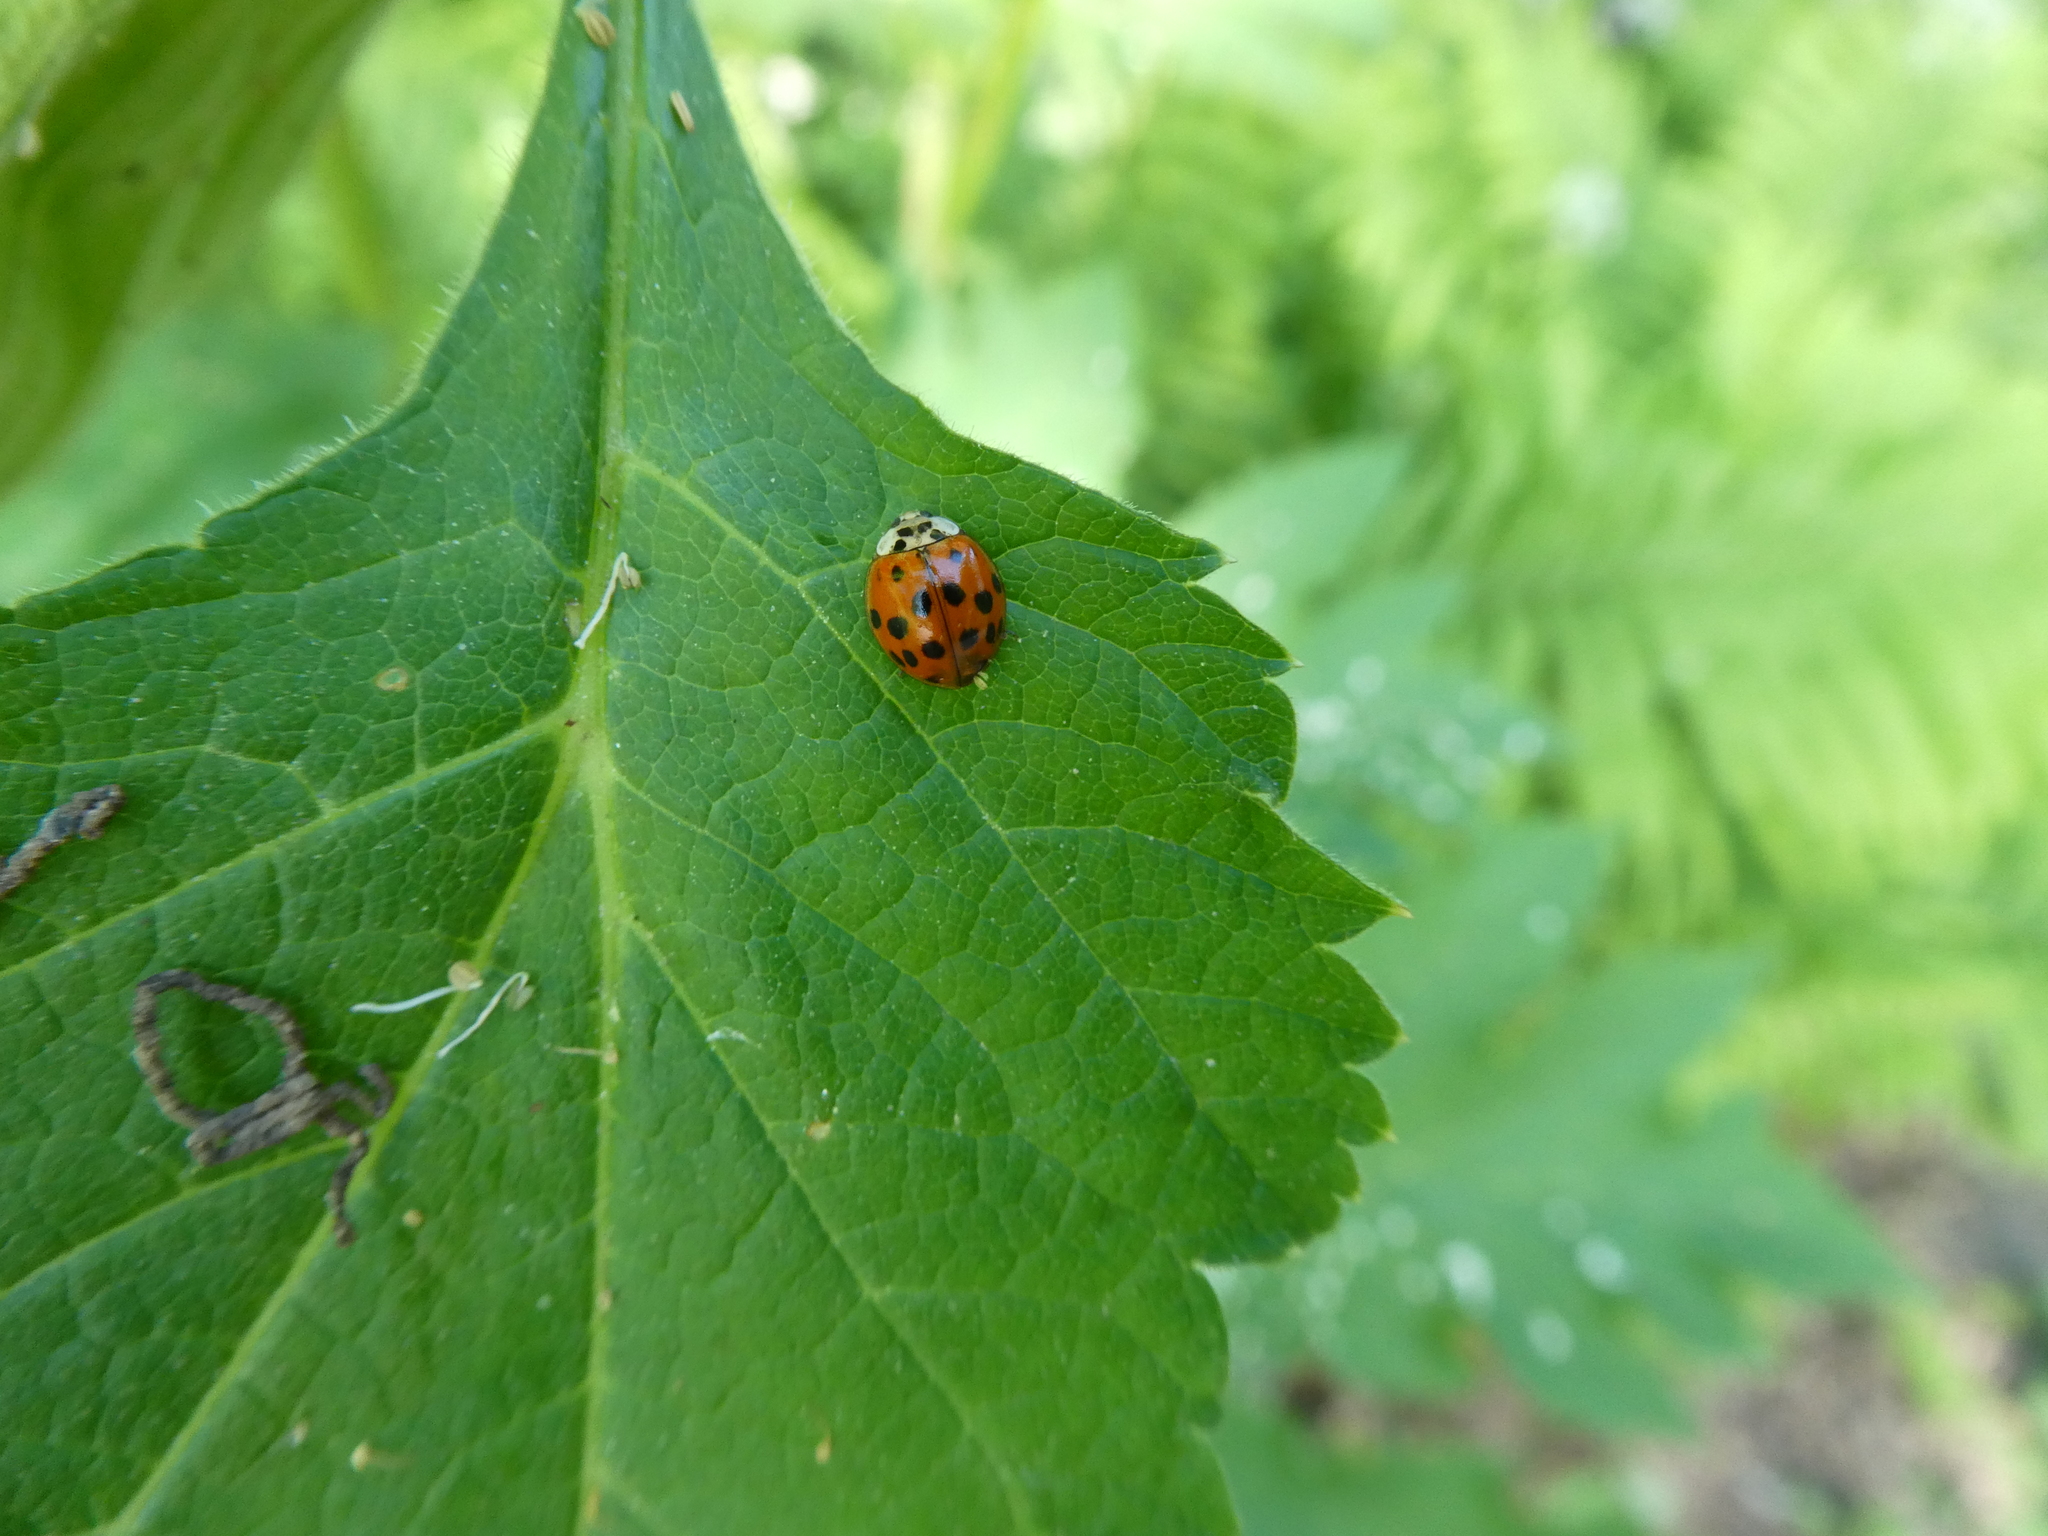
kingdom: Fungi
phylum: Ascomycota
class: Laboulbeniomycetes
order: Laboulbeniales
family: Laboulbeniaceae
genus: Hesperomyces
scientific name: Hesperomyces harmoniae
